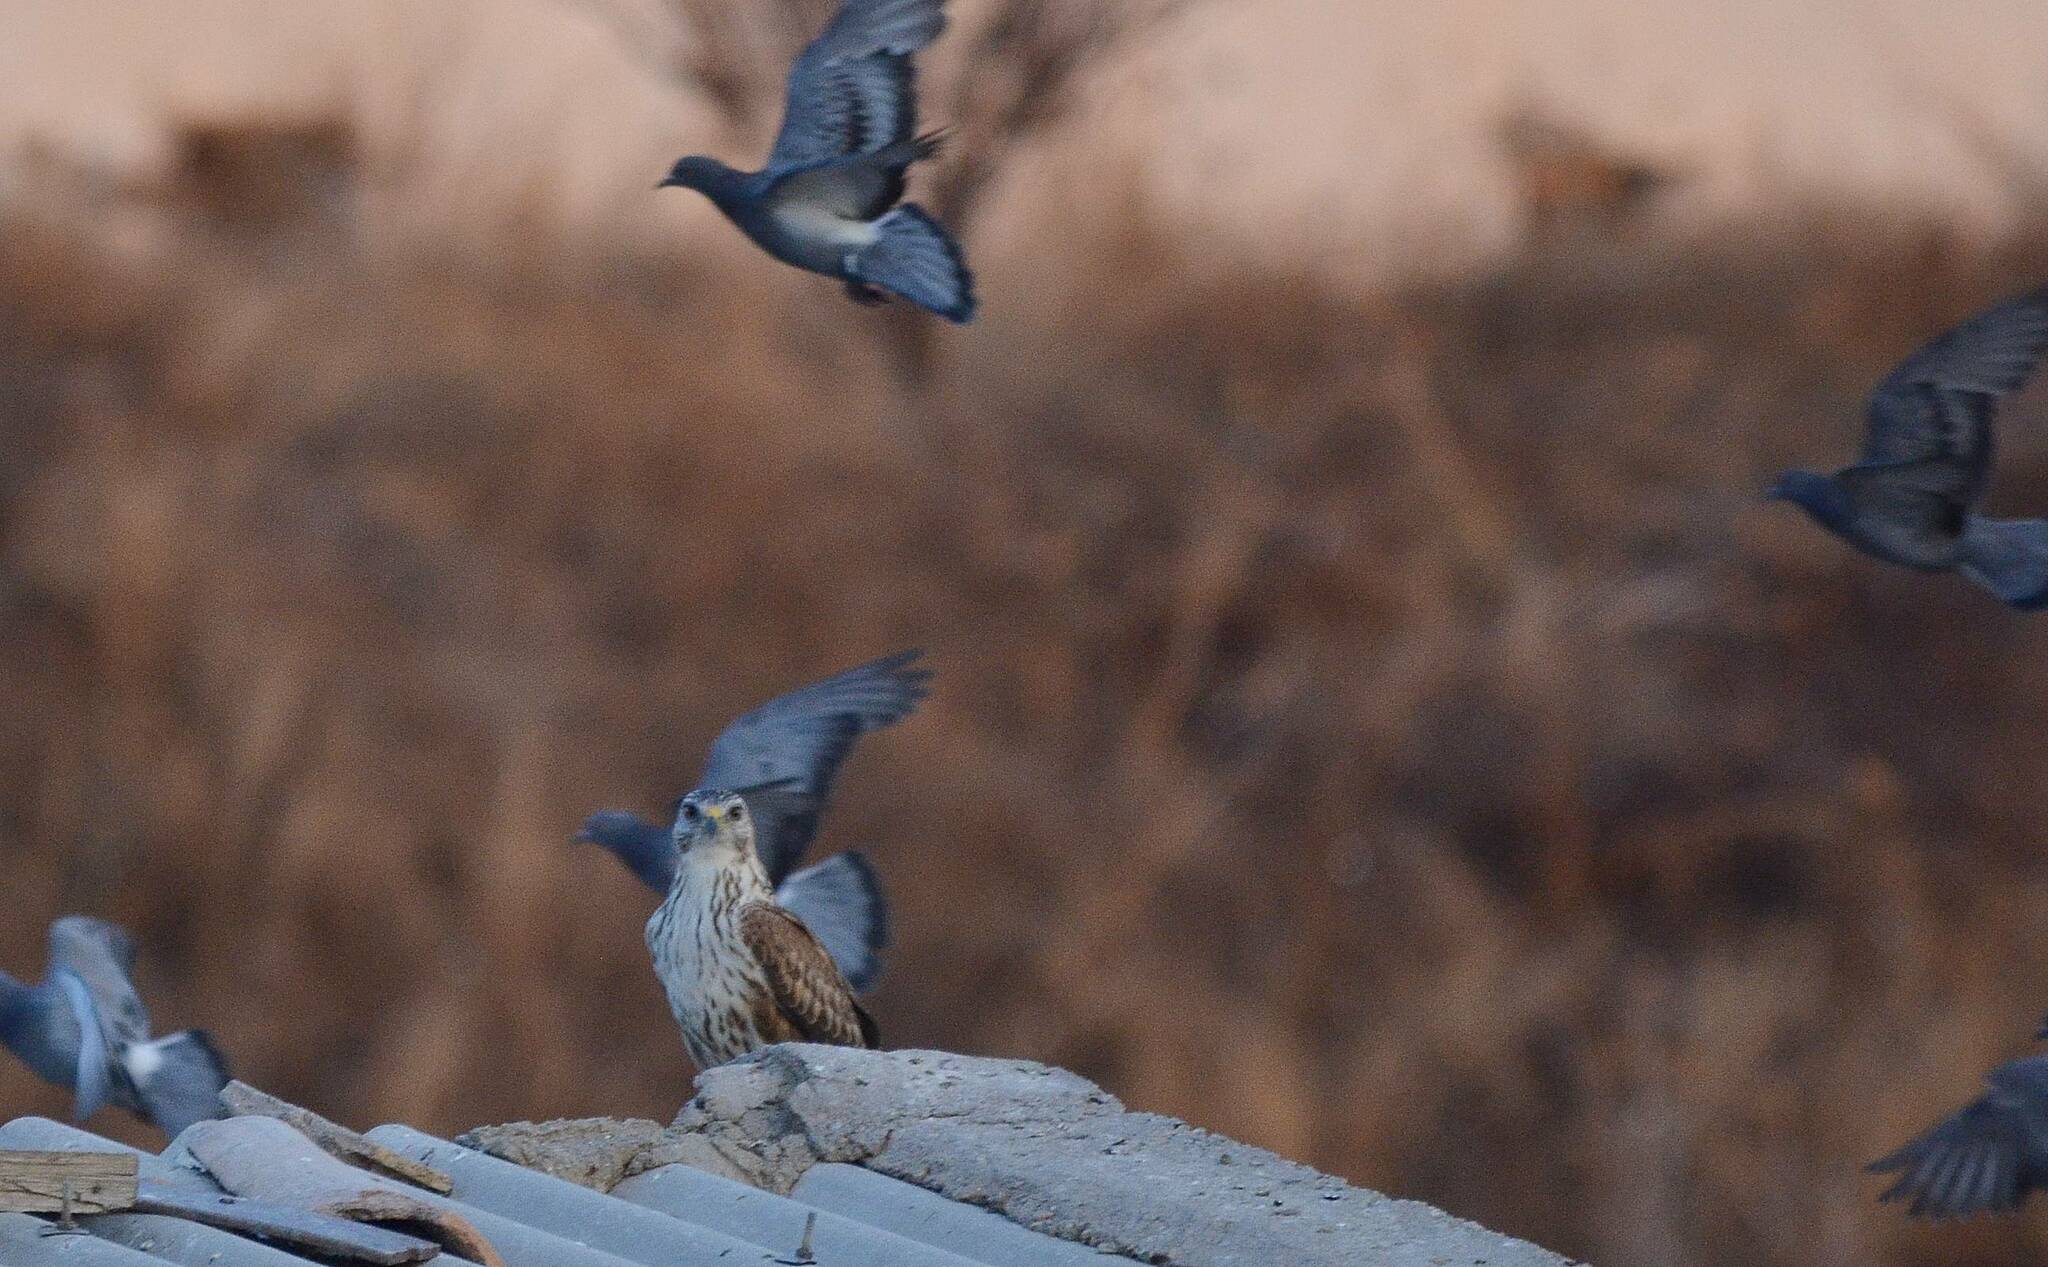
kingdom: Animalia
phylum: Chordata
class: Aves
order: Columbiformes
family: Columbidae
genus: Columba
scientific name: Columba livia
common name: Rock pigeon
